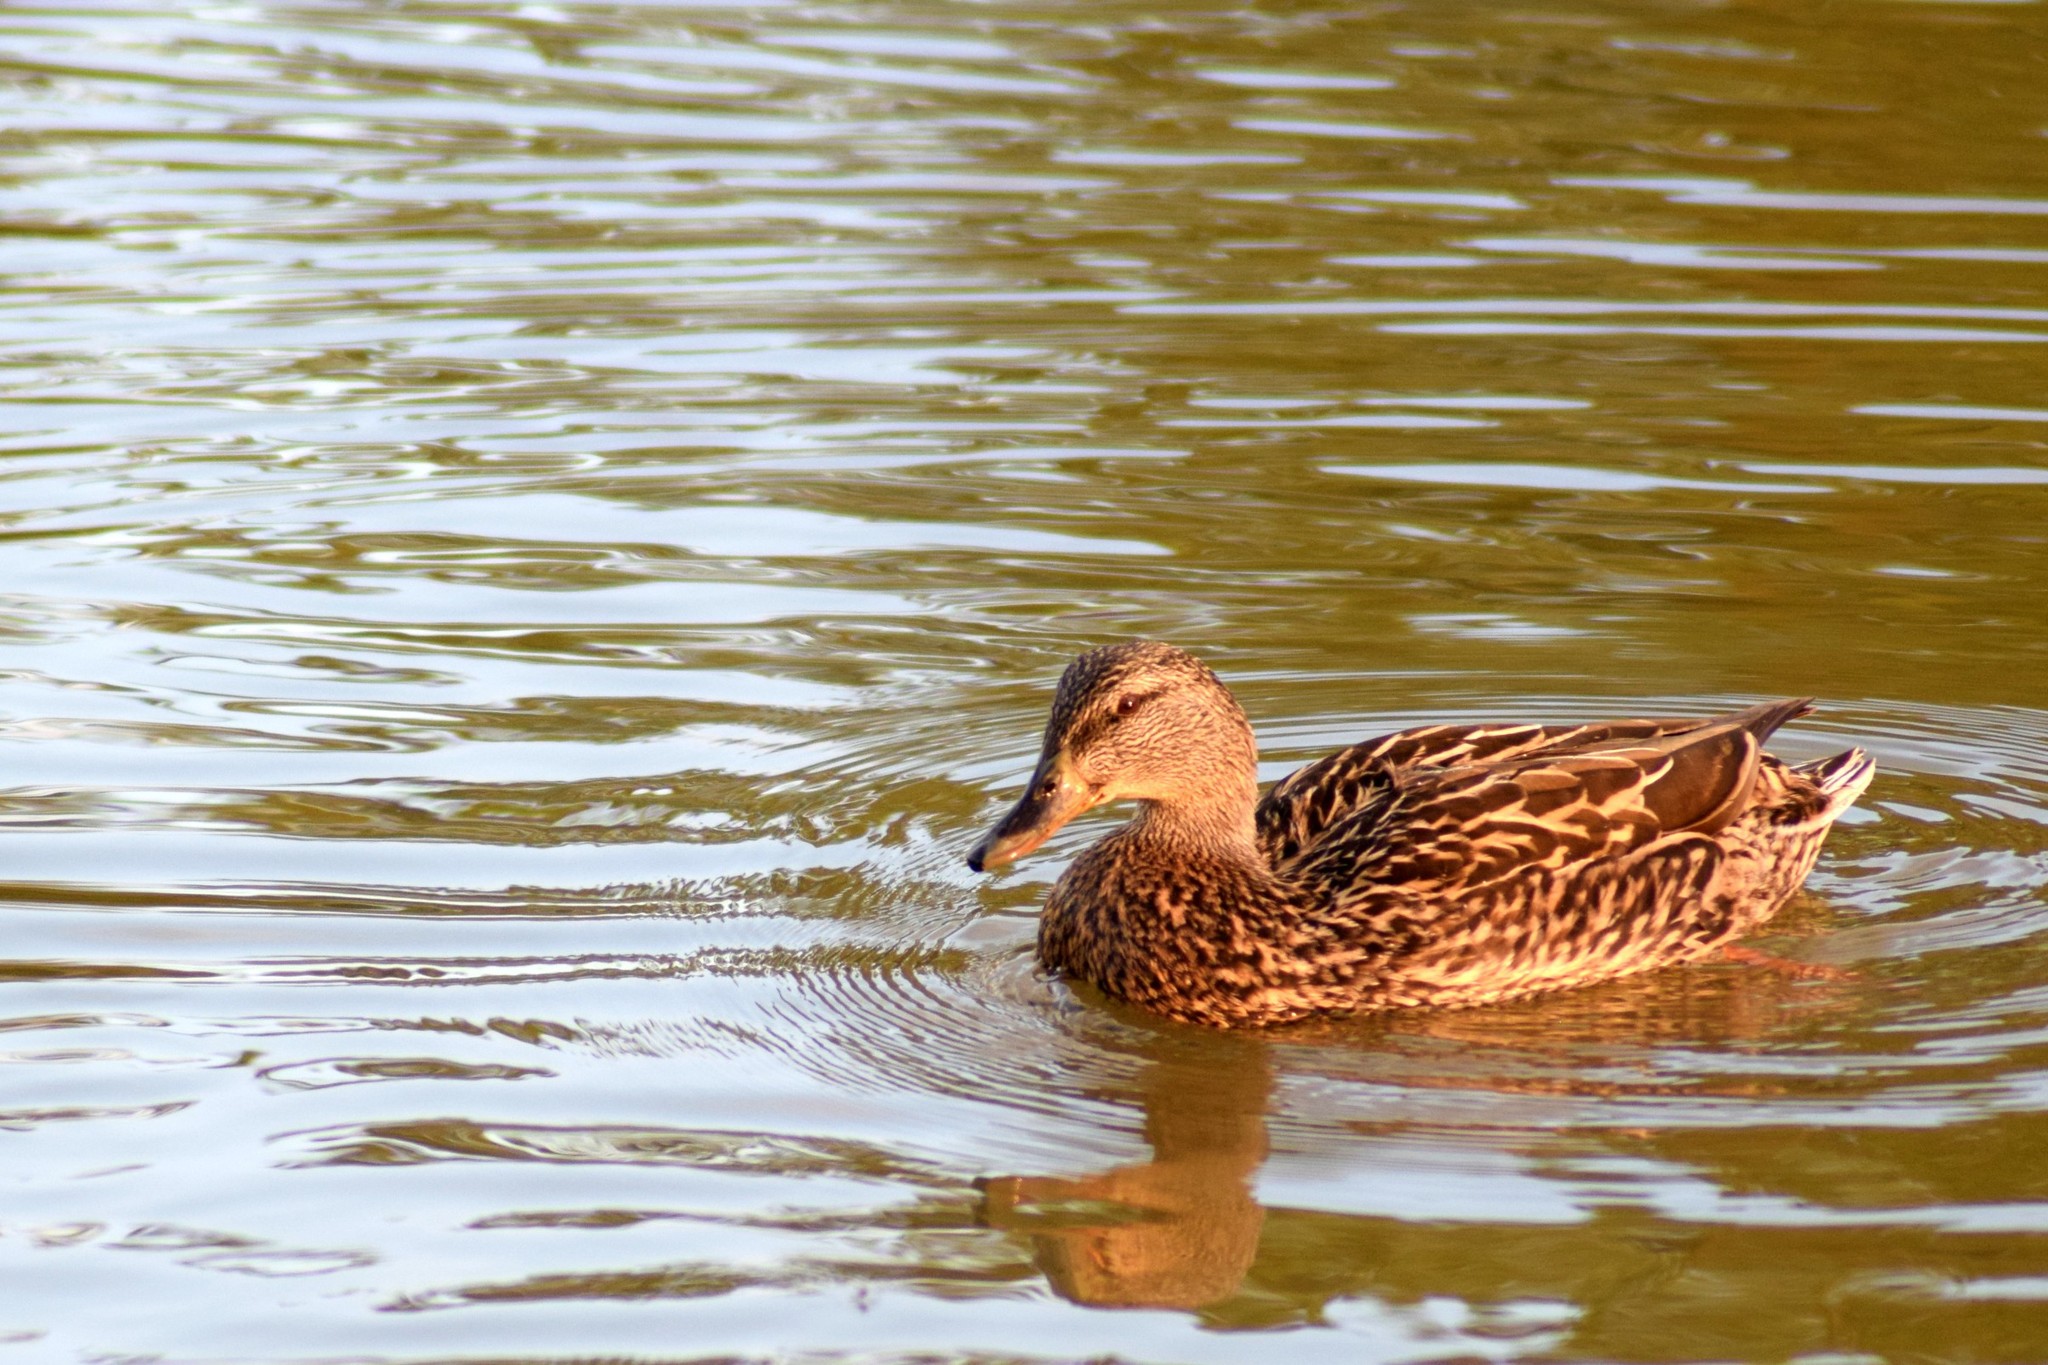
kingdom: Animalia
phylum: Chordata
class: Aves
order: Anseriformes
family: Anatidae
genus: Anas
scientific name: Anas platyrhynchos
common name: Mallard
